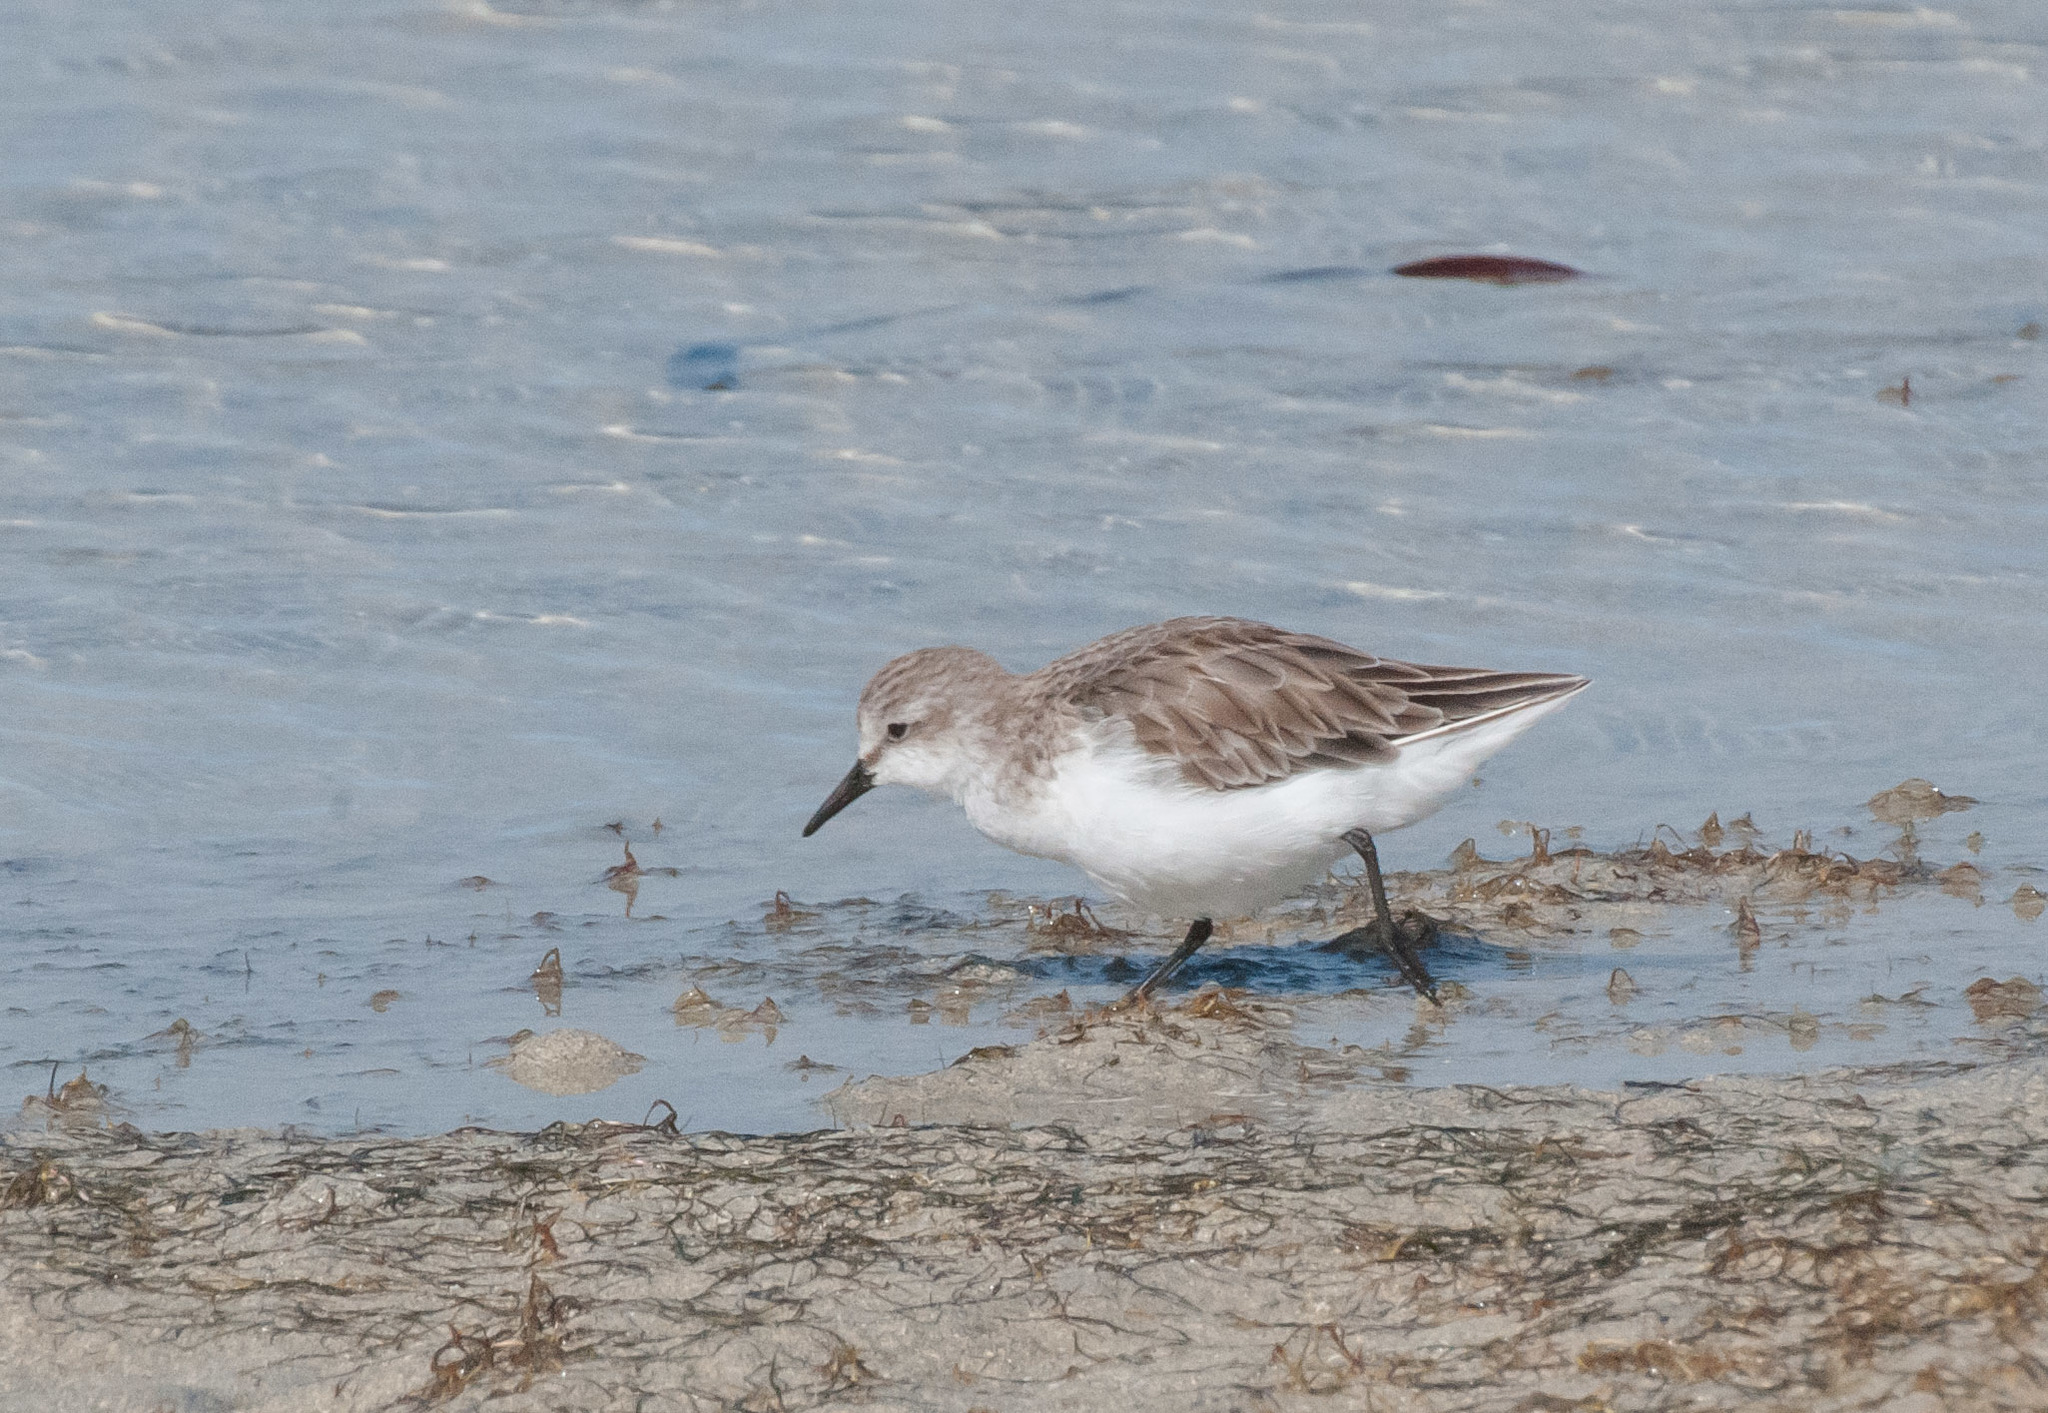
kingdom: Animalia
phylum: Chordata
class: Aves
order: Charadriiformes
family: Scolopacidae
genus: Calidris
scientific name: Calidris ruficollis
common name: Red-necked stint
